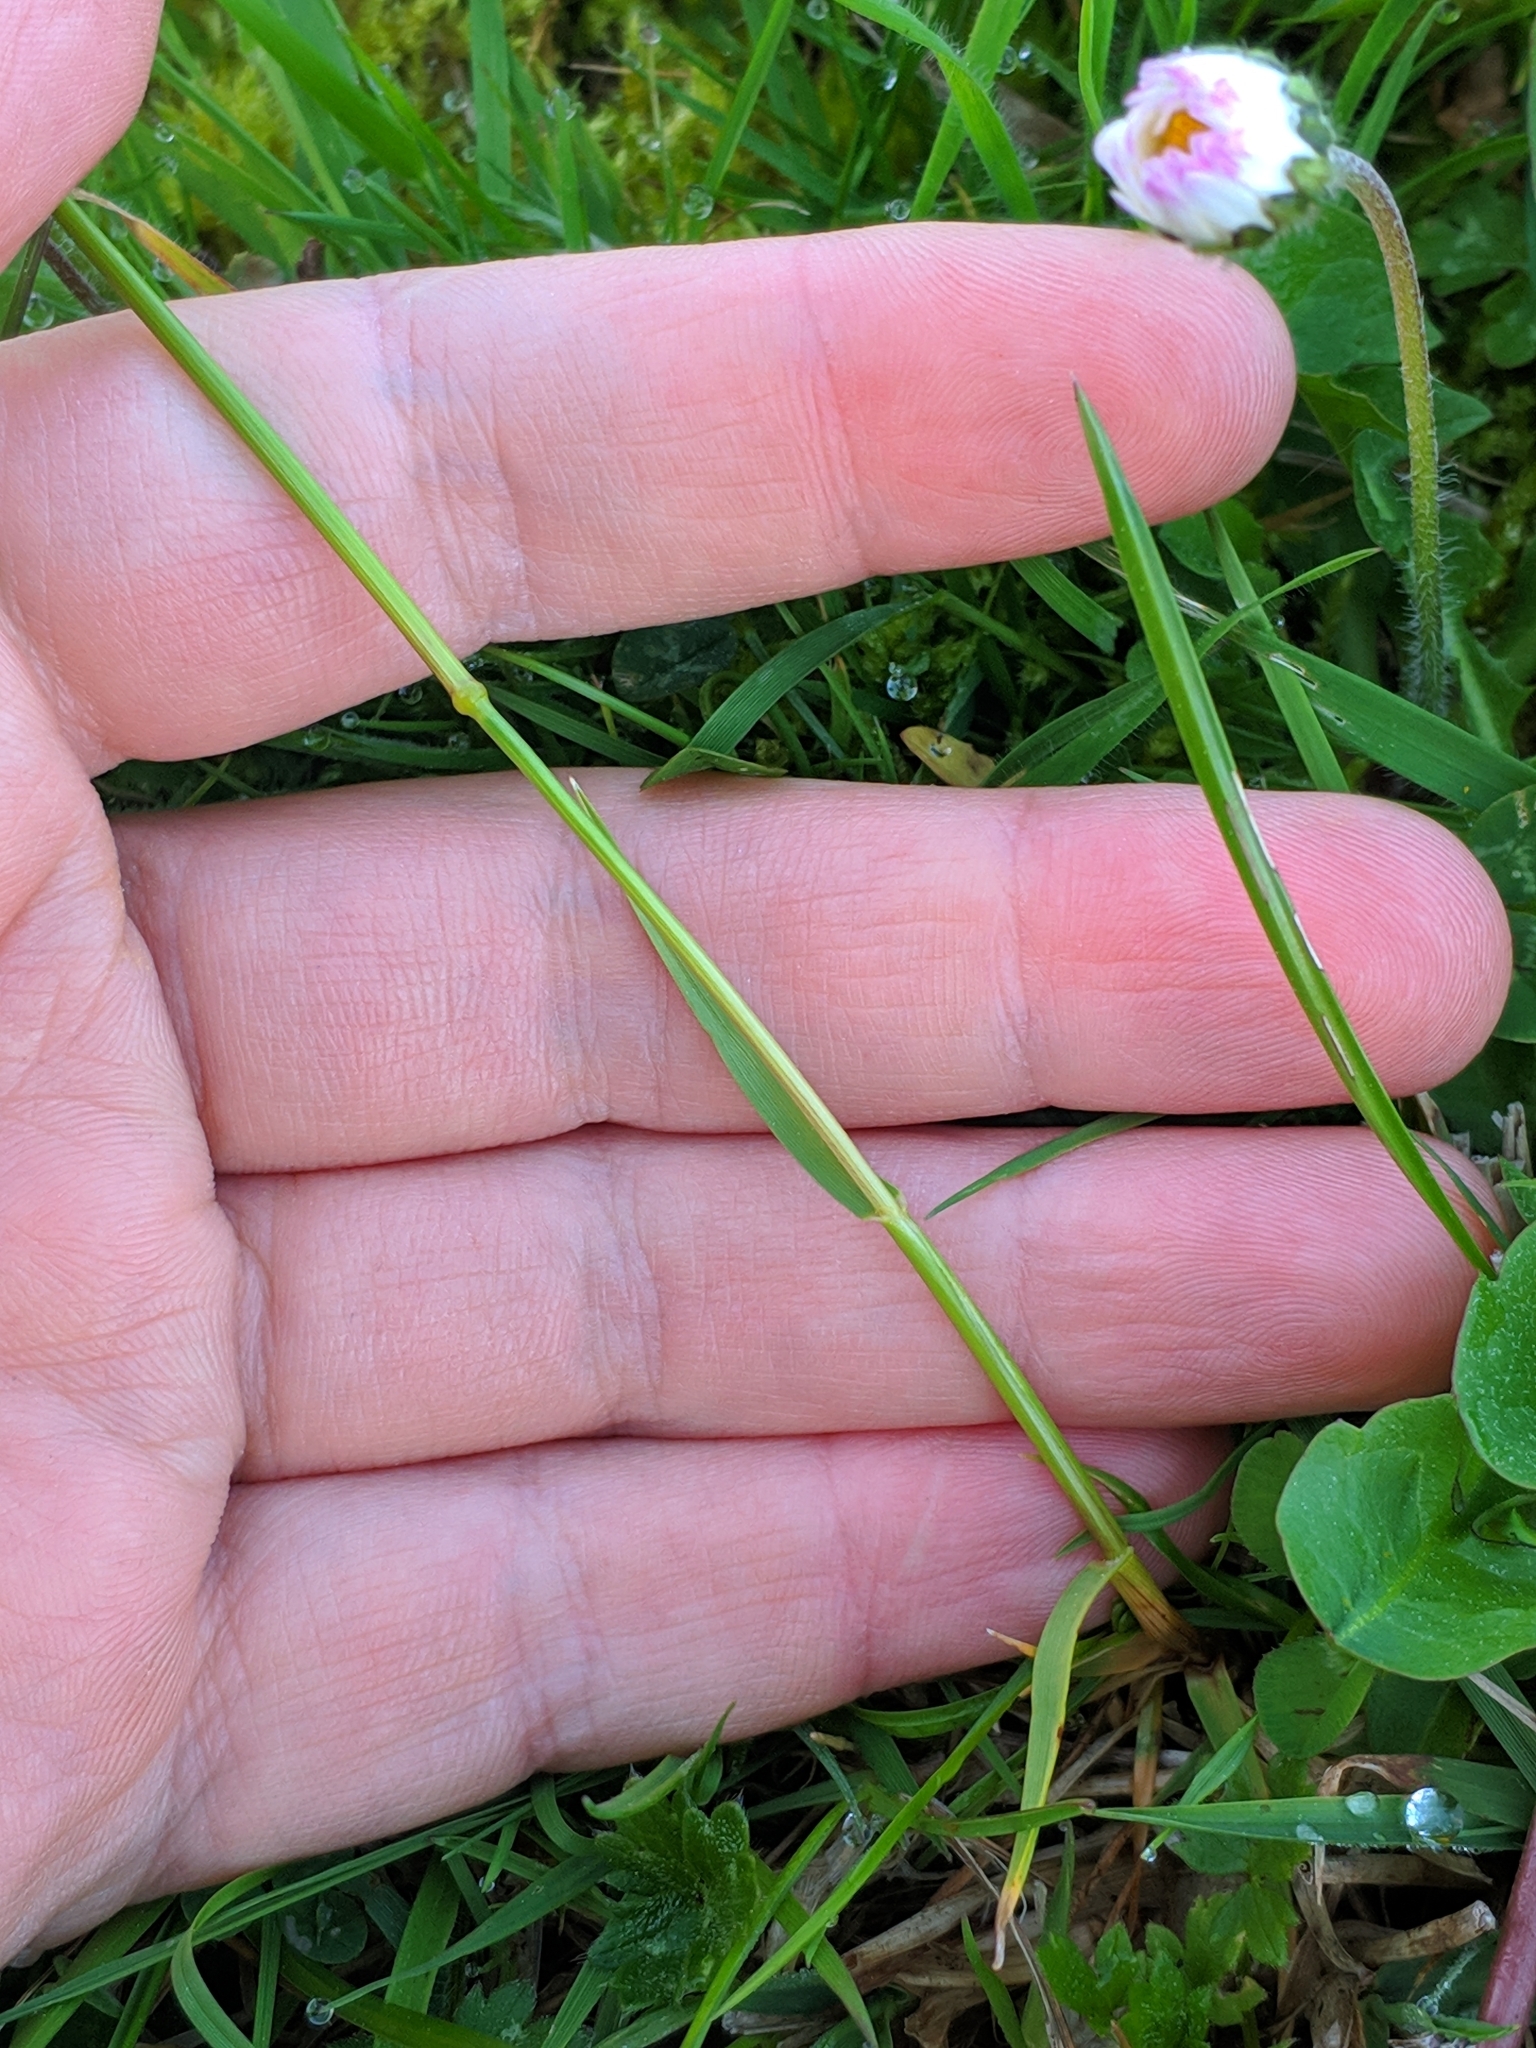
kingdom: Plantae
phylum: Tracheophyta
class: Liliopsida
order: Poales
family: Poaceae
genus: Cynosurus
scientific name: Cynosurus cristatus
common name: Crested dog's-tail
